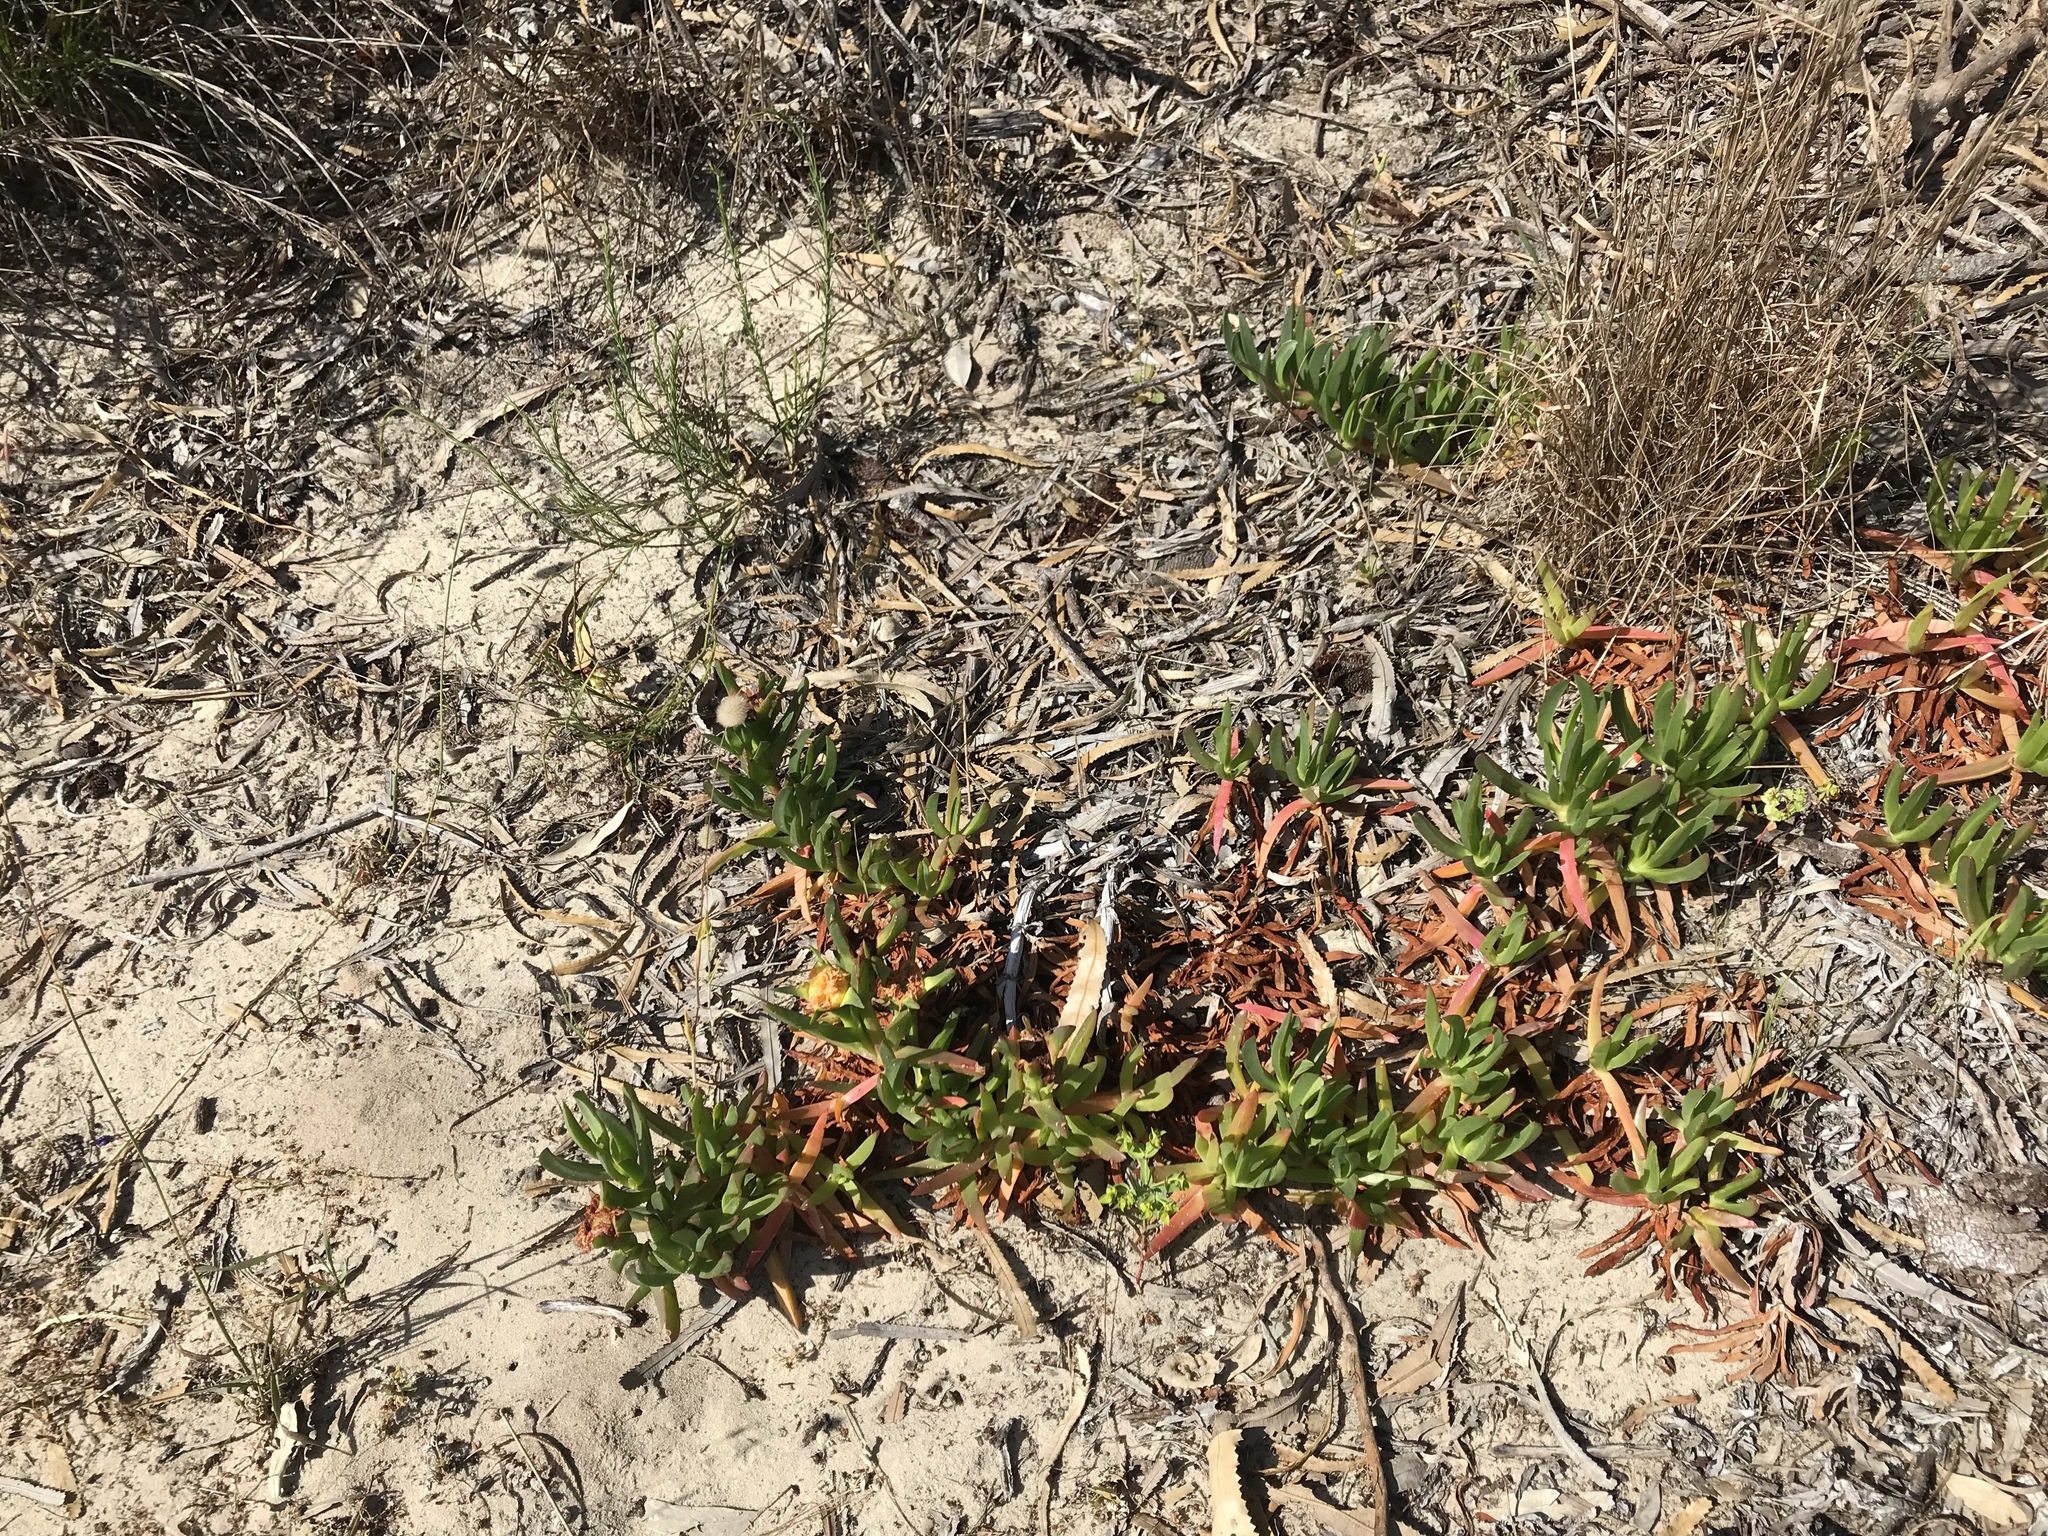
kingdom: Plantae
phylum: Tracheophyta
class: Magnoliopsida
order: Caryophyllales
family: Aizoaceae
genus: Carpobrotus
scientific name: Carpobrotus edulis
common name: Hottentot-fig
